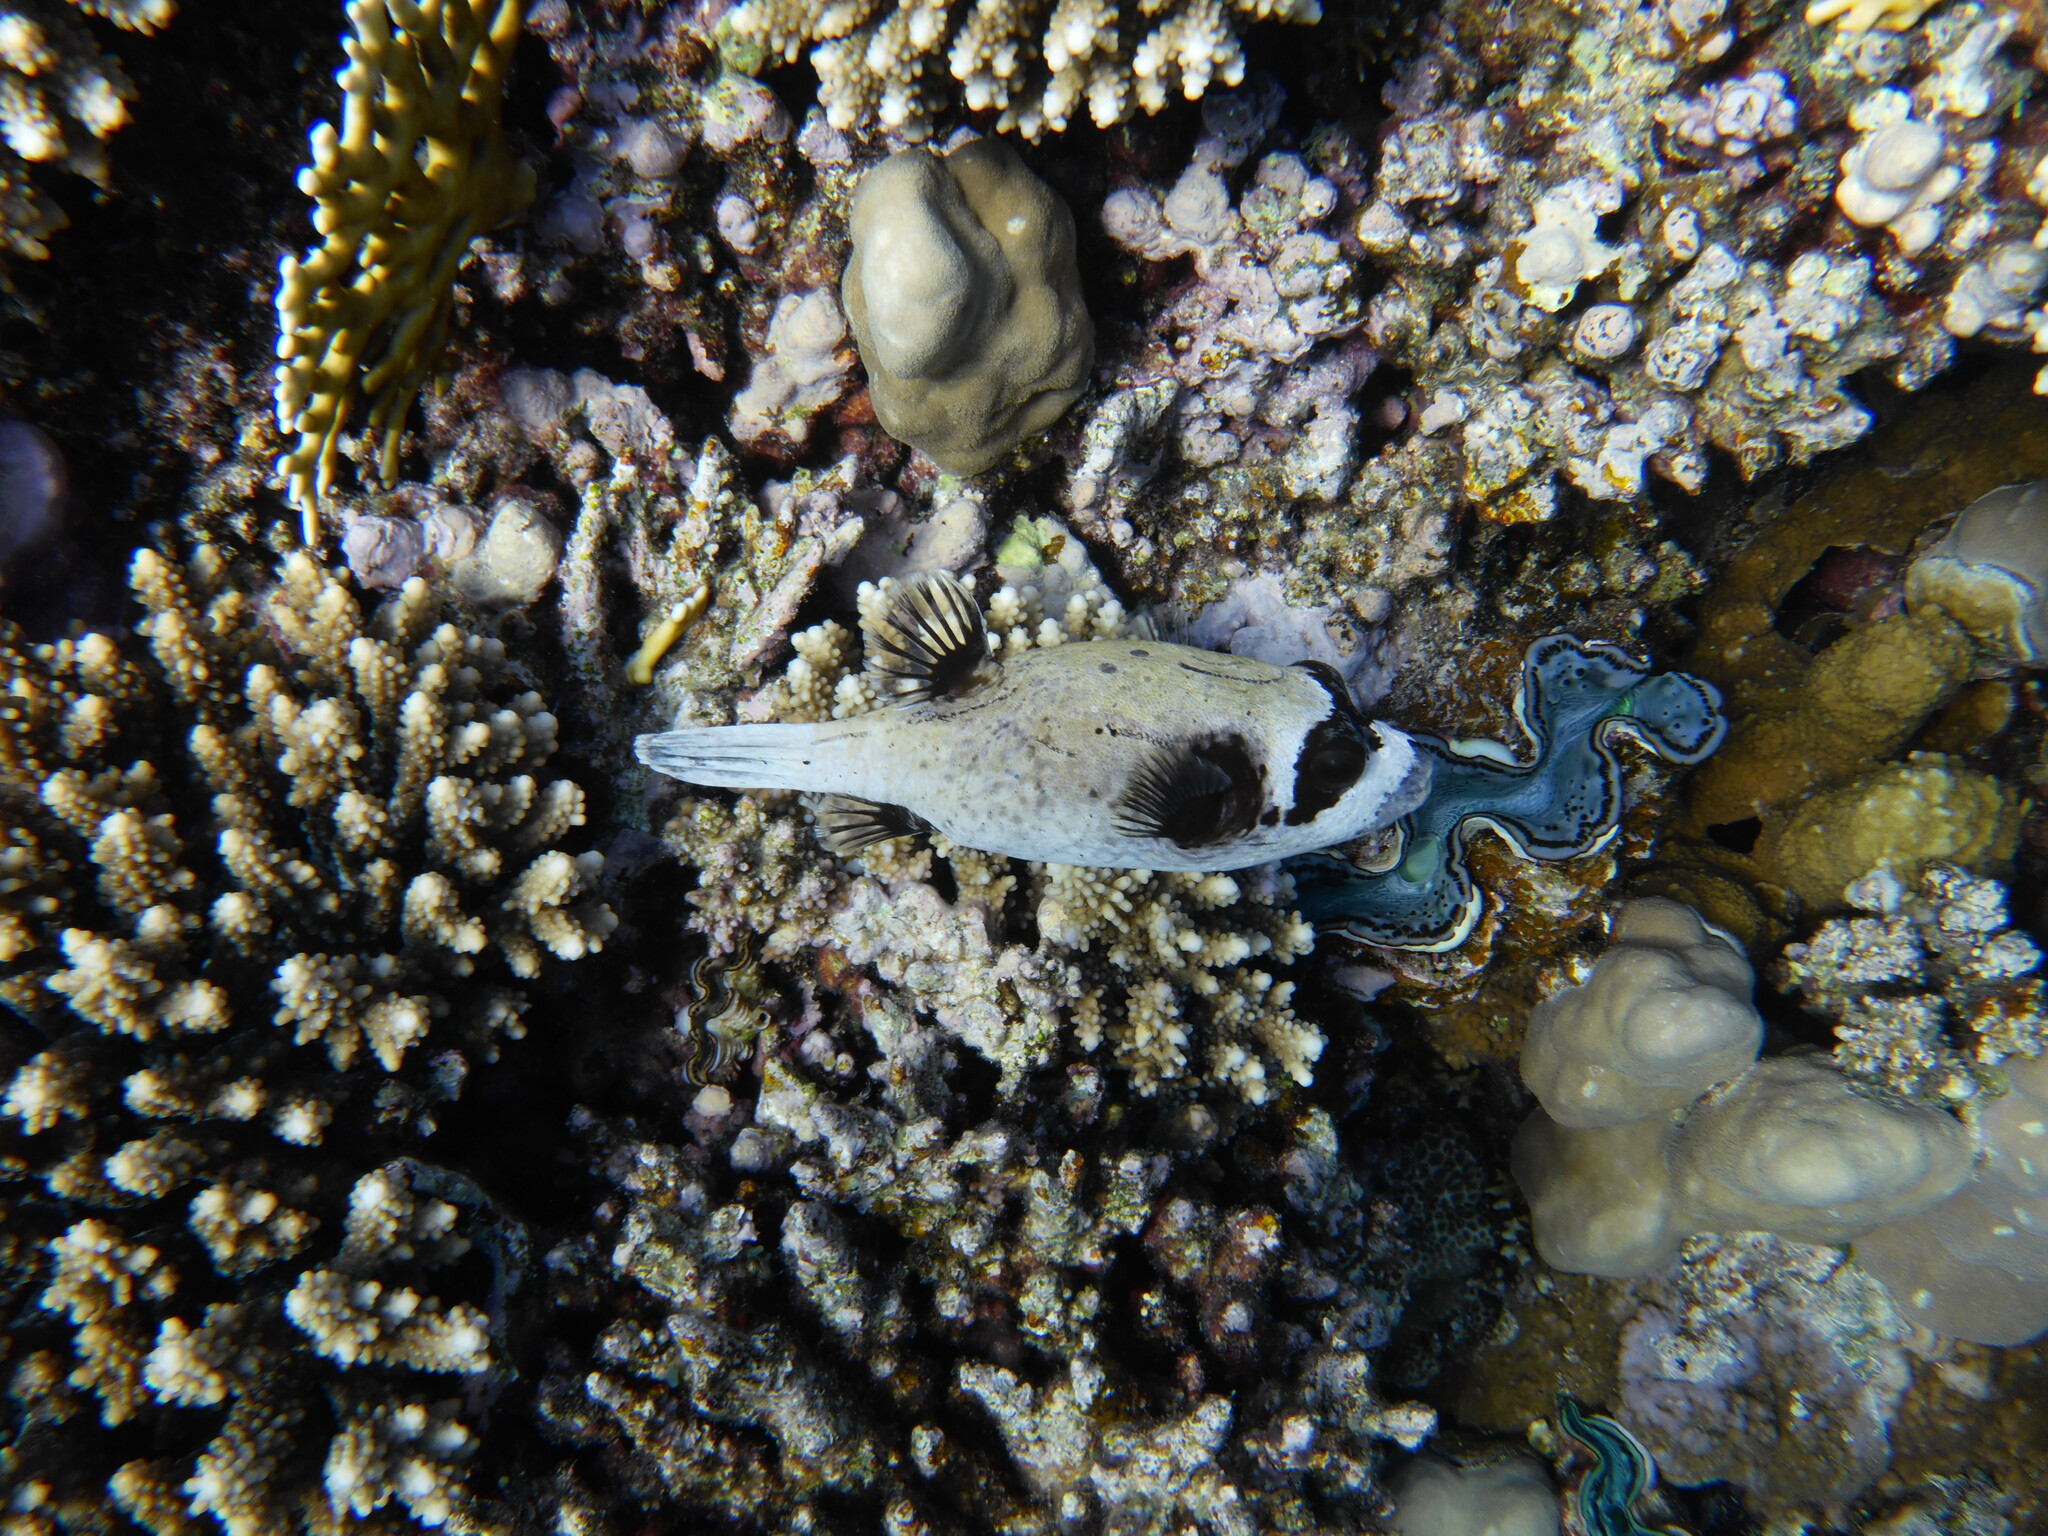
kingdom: Animalia
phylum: Chordata
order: Tetraodontiformes
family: Tetraodontidae
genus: Arothron
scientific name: Arothron diadematus
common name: Masked puffer
